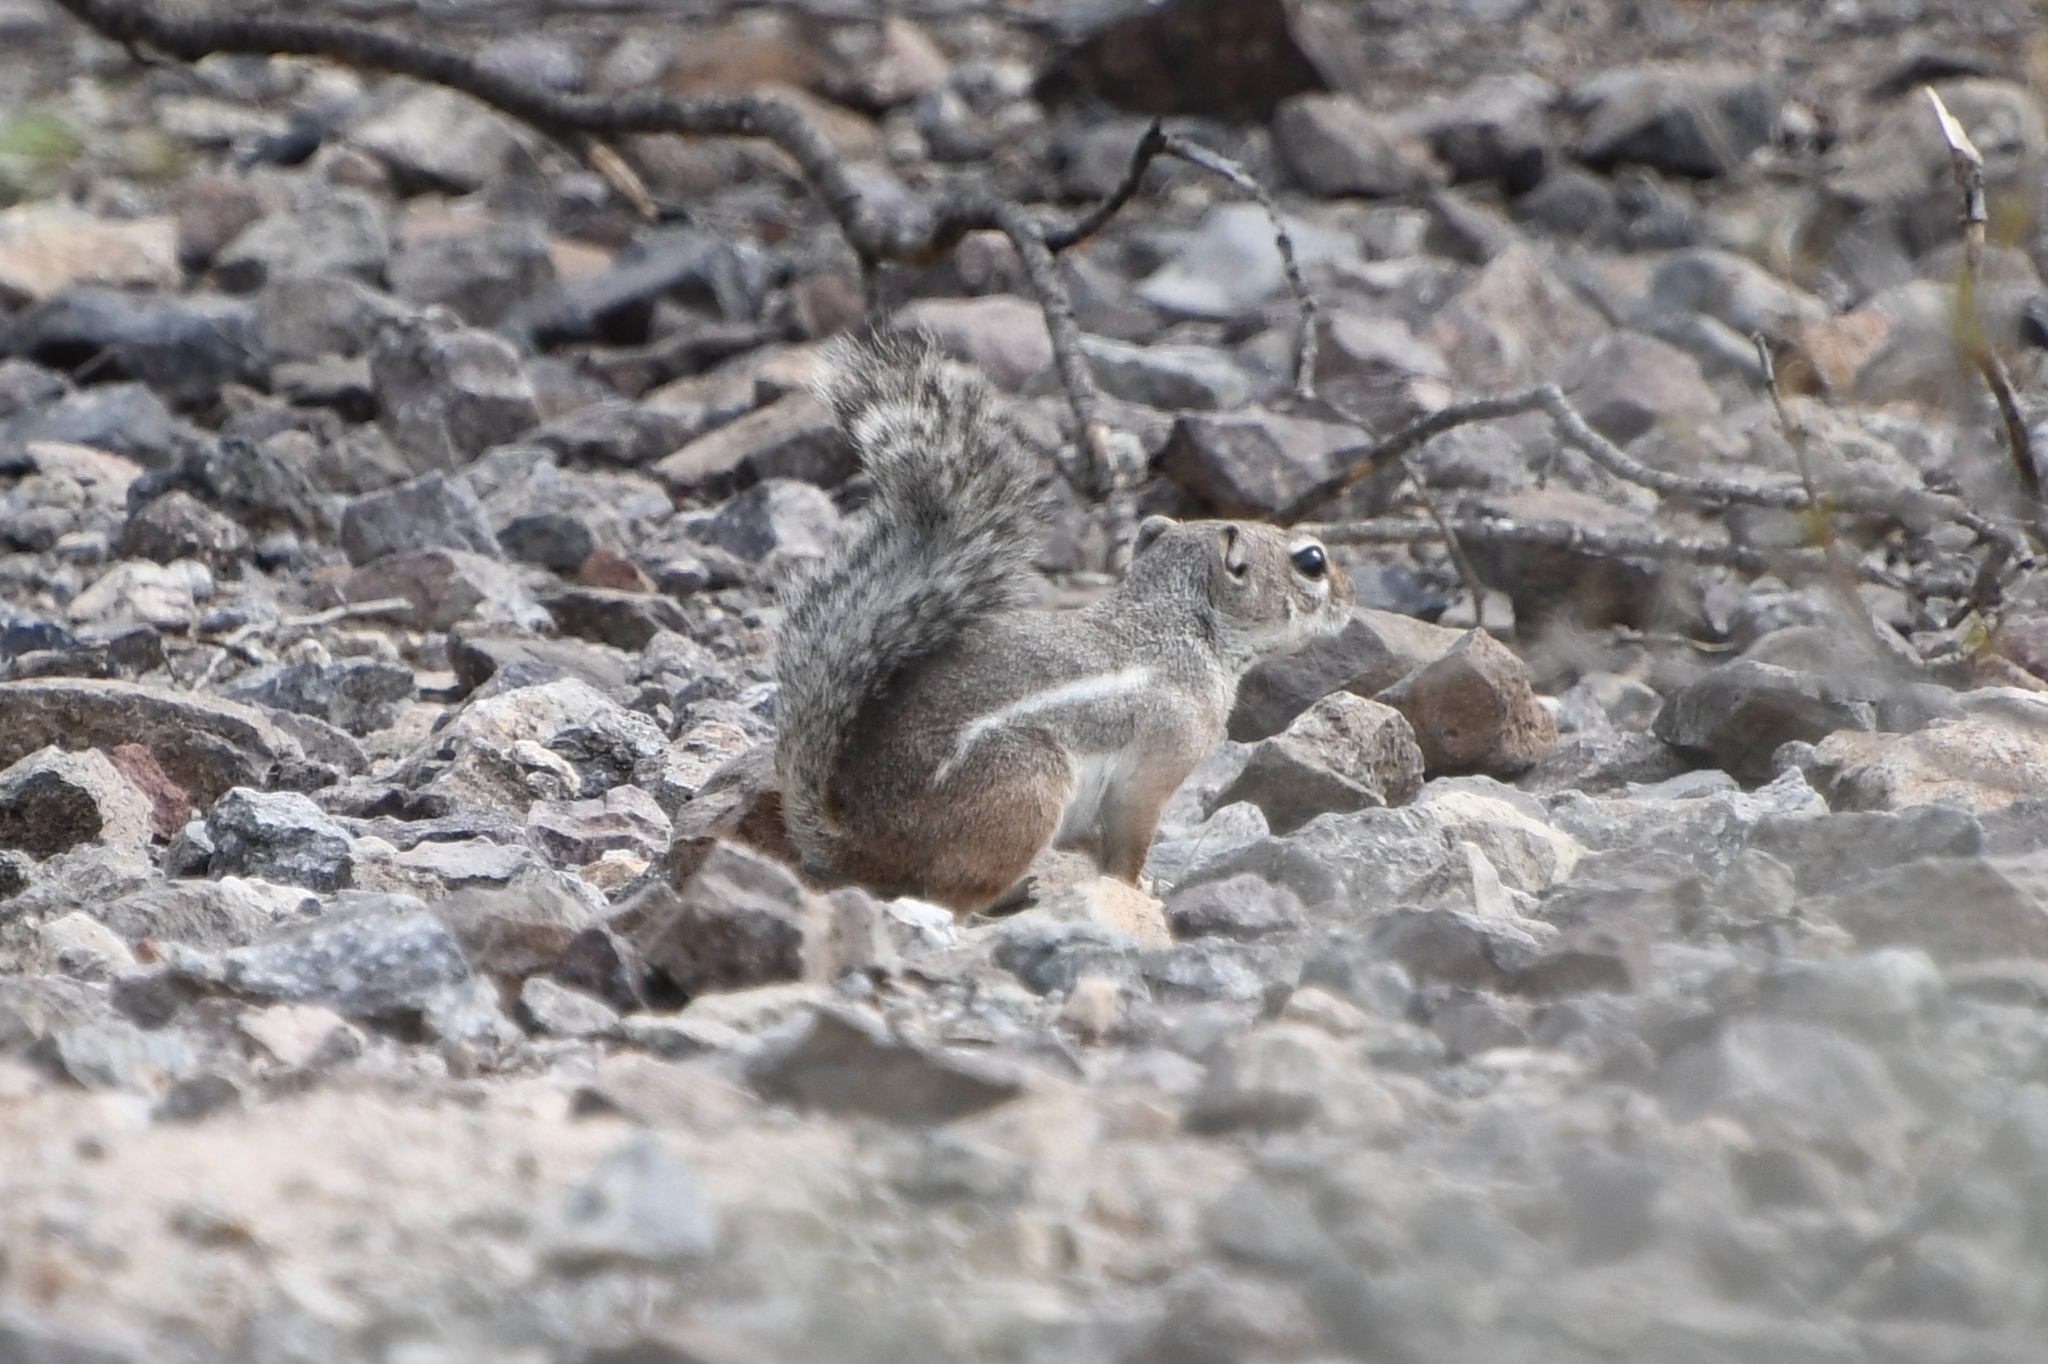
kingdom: Animalia
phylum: Chordata
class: Mammalia
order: Rodentia
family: Sciuridae
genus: Ammospermophilus
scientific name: Ammospermophilus harrisii
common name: Harris's antelope squirrel
